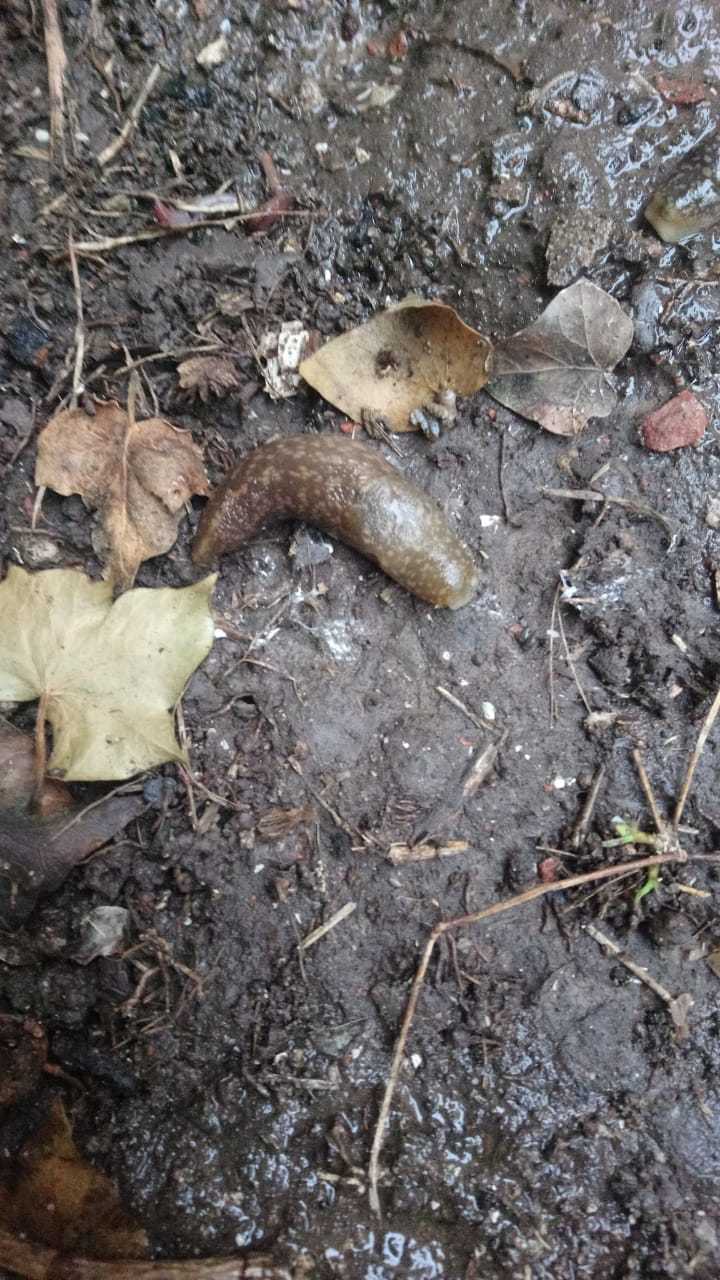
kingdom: Animalia
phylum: Mollusca
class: Gastropoda
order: Stylommatophora
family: Limacidae
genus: Limacus
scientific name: Limacus flavus
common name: Yellow gardenslug
